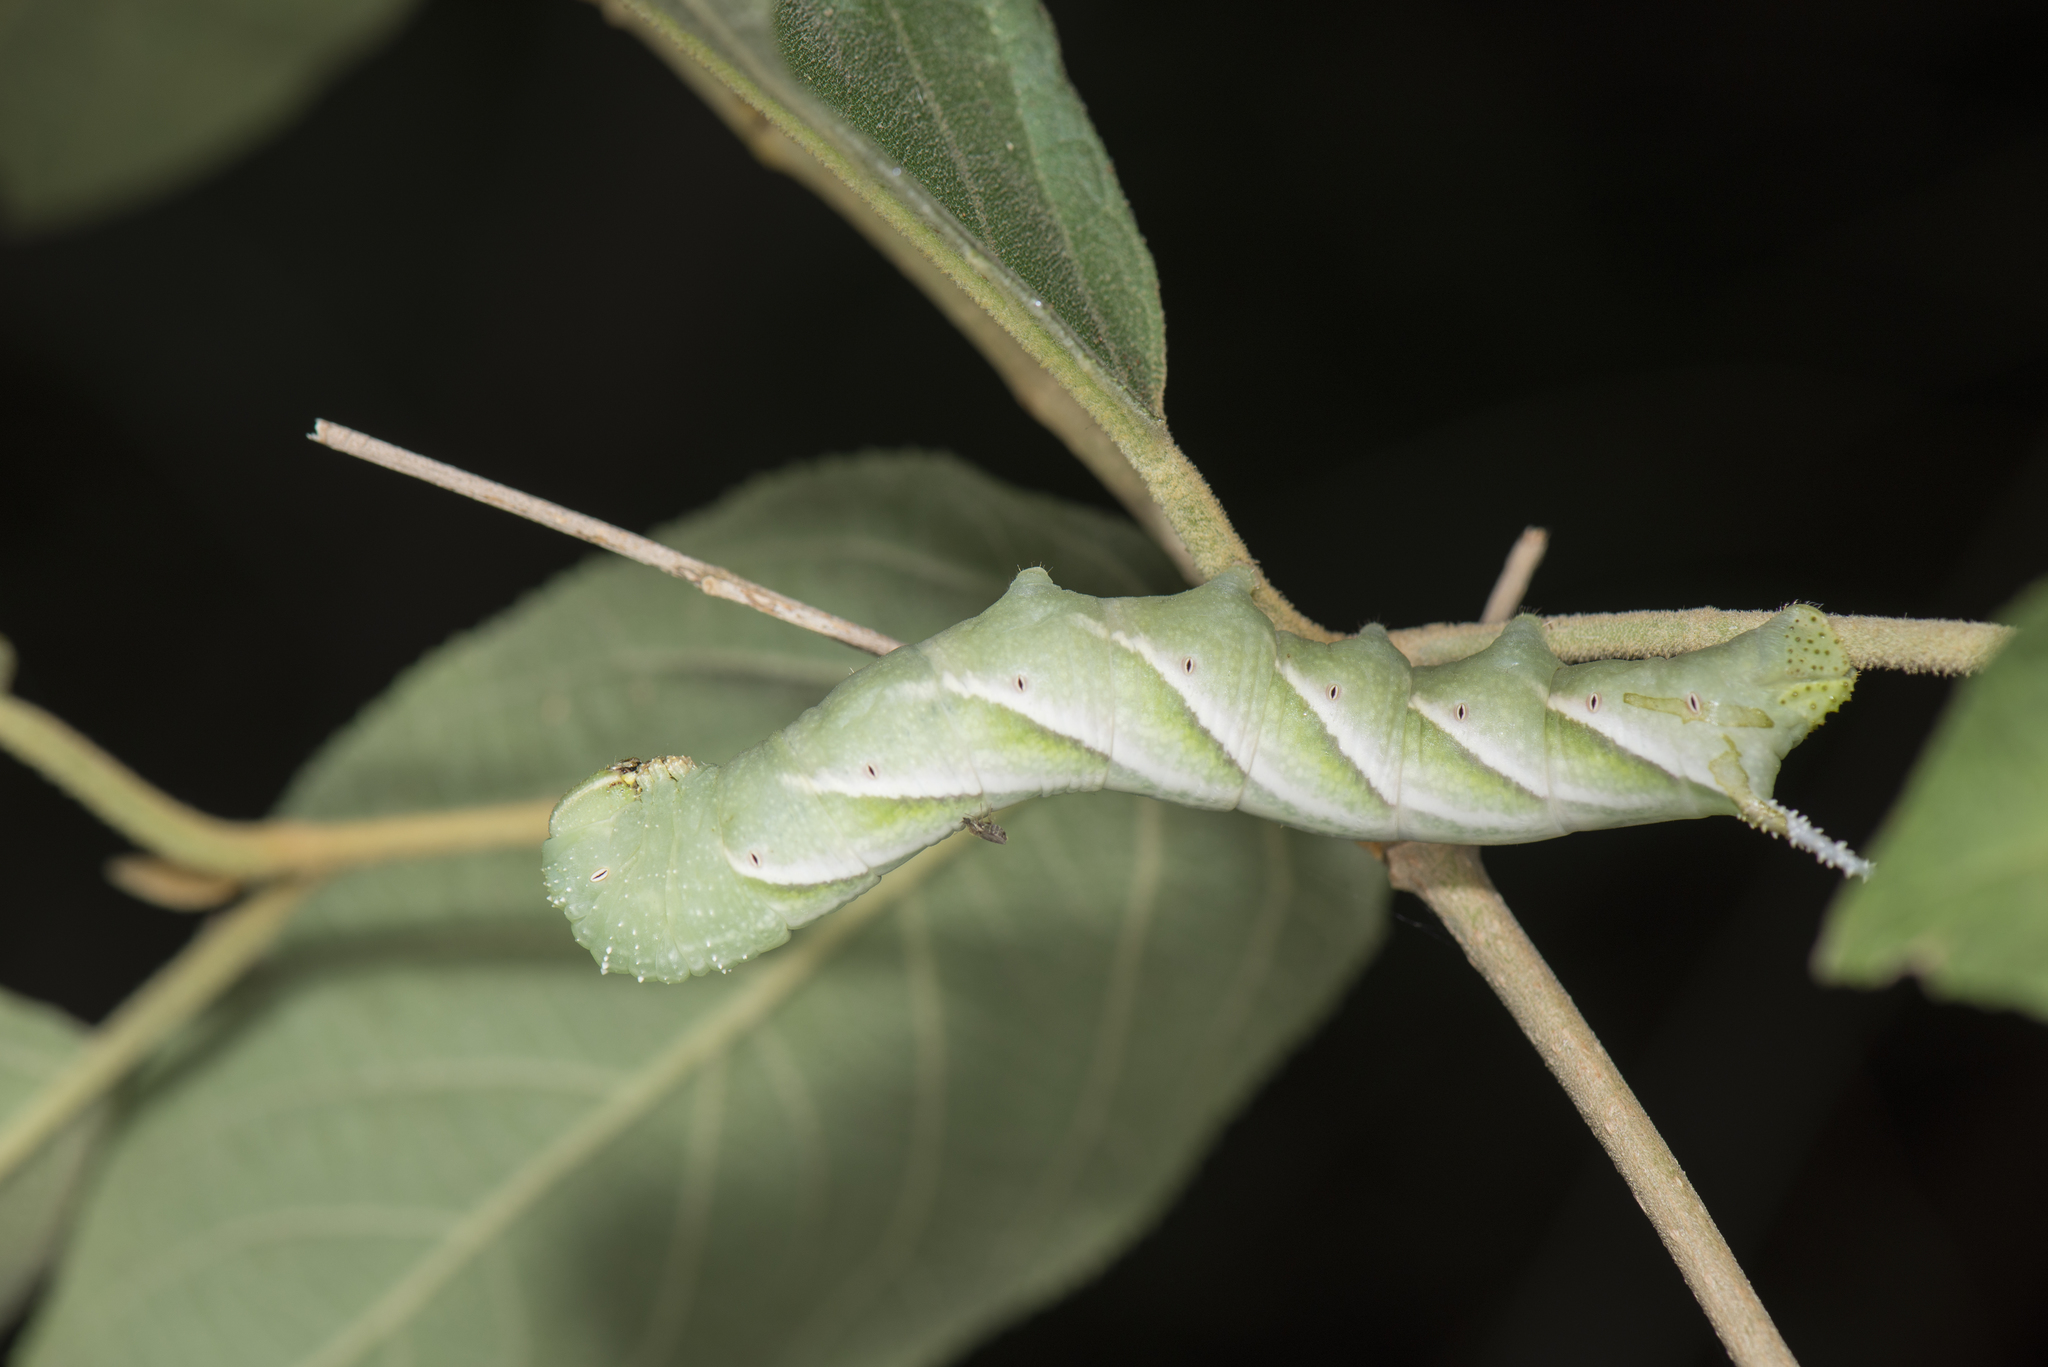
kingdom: Animalia
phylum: Arthropoda
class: Insecta
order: Lepidoptera
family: Sphingidae
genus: Psilogramma
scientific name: Psilogramma increta
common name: Gray hawk moth
